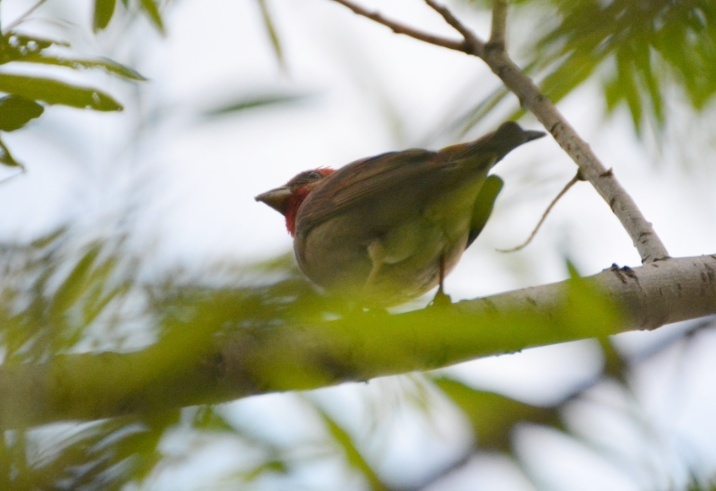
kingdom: Animalia
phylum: Chordata
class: Aves
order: Passeriformes
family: Fringillidae
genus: Carpodacus
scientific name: Carpodacus erythrinus
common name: Common rosefinch
